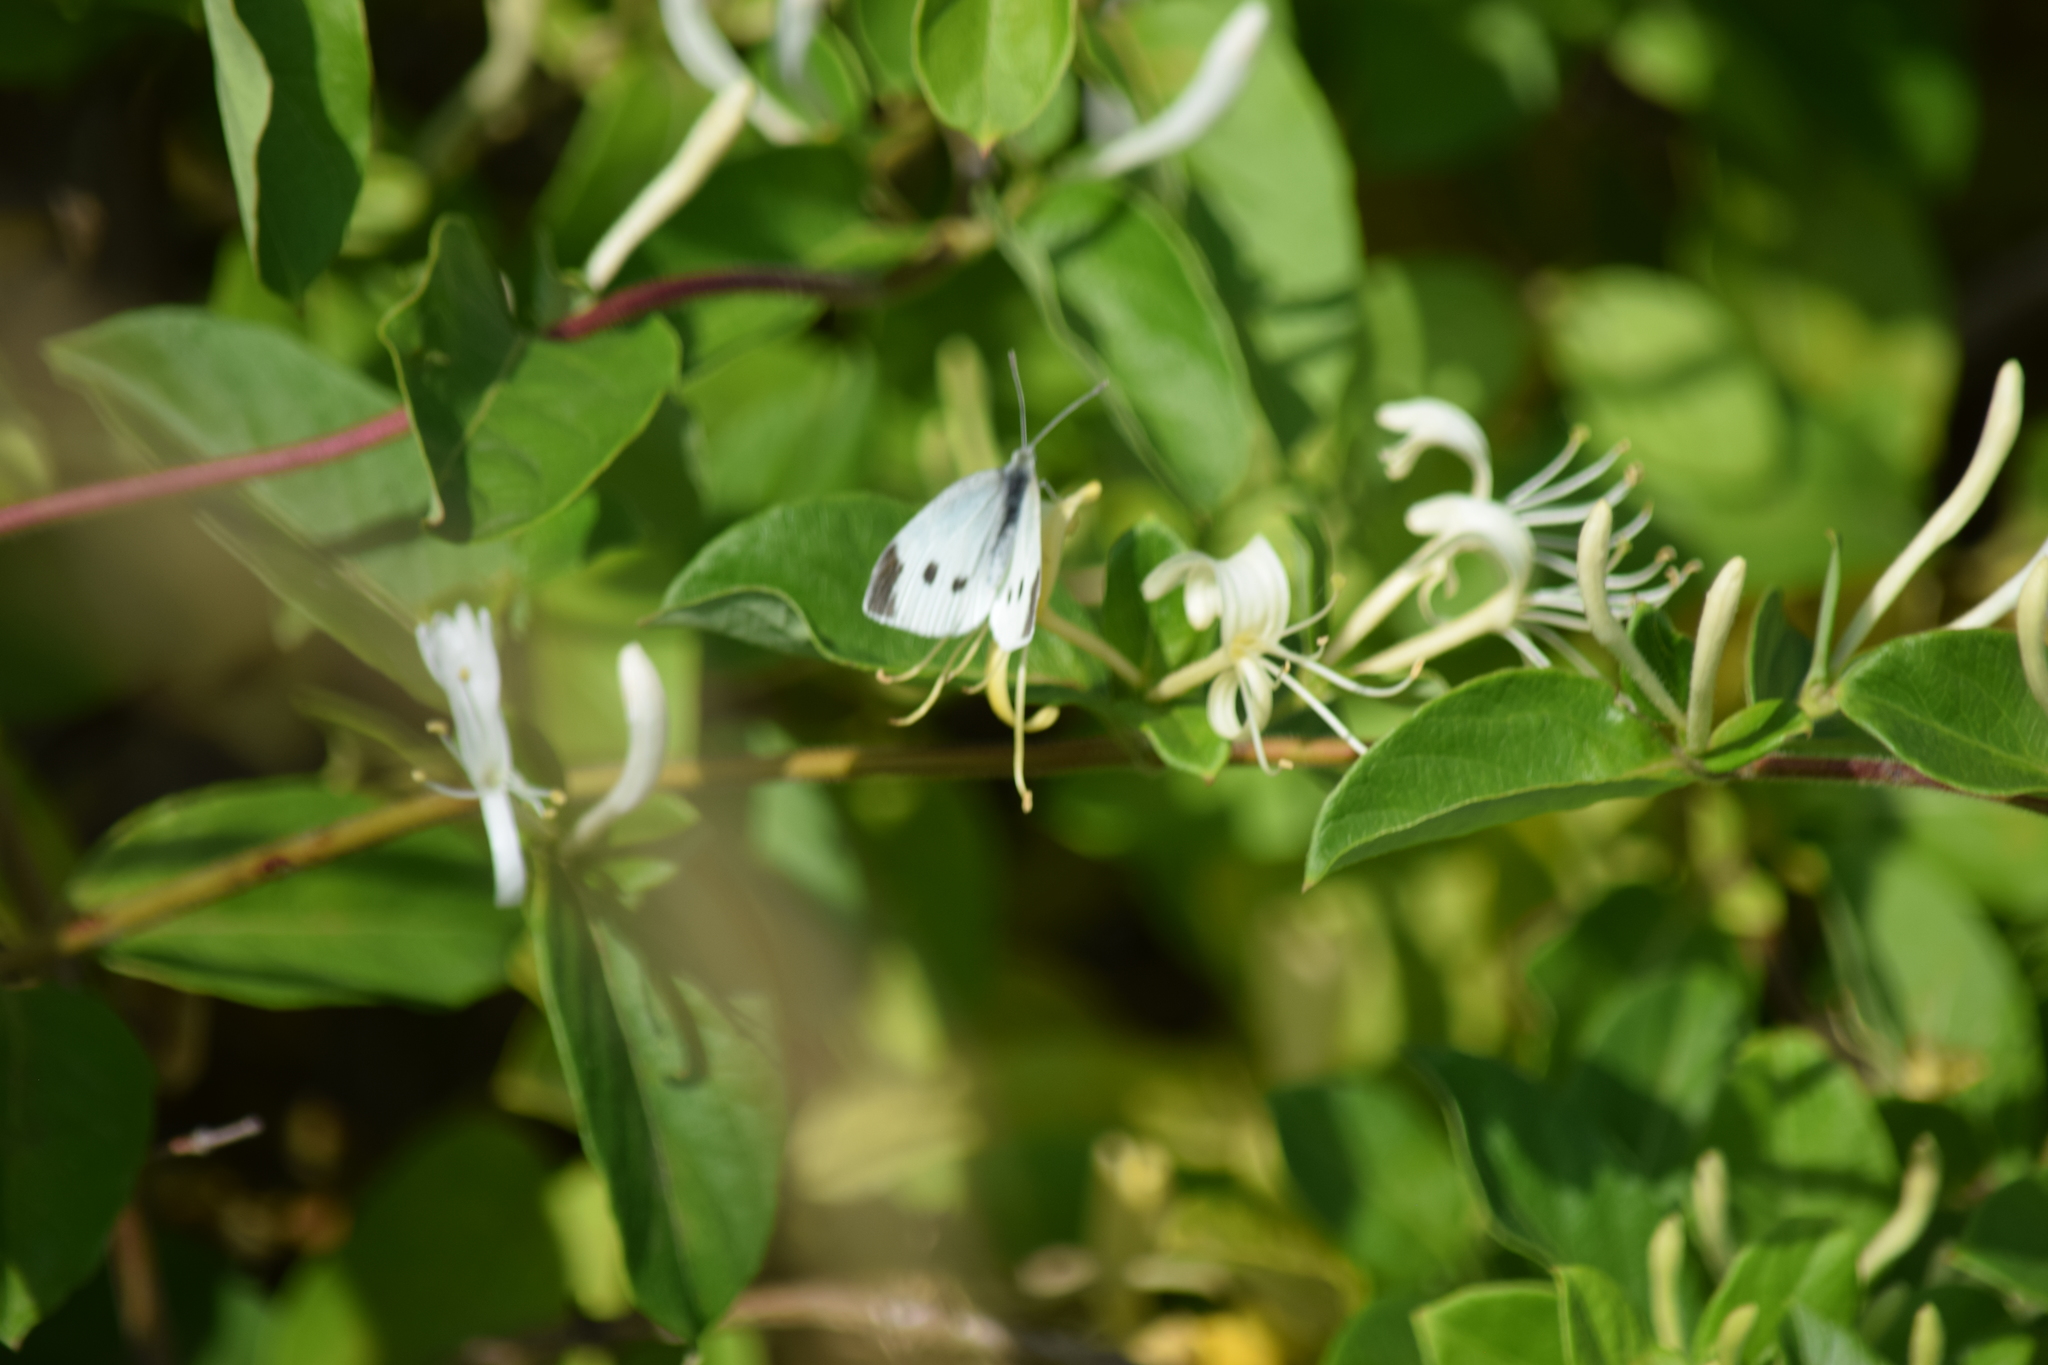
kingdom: Animalia
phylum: Arthropoda
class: Insecta
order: Lepidoptera
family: Pieridae
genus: Pieris
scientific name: Pieris rapae
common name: Small white
